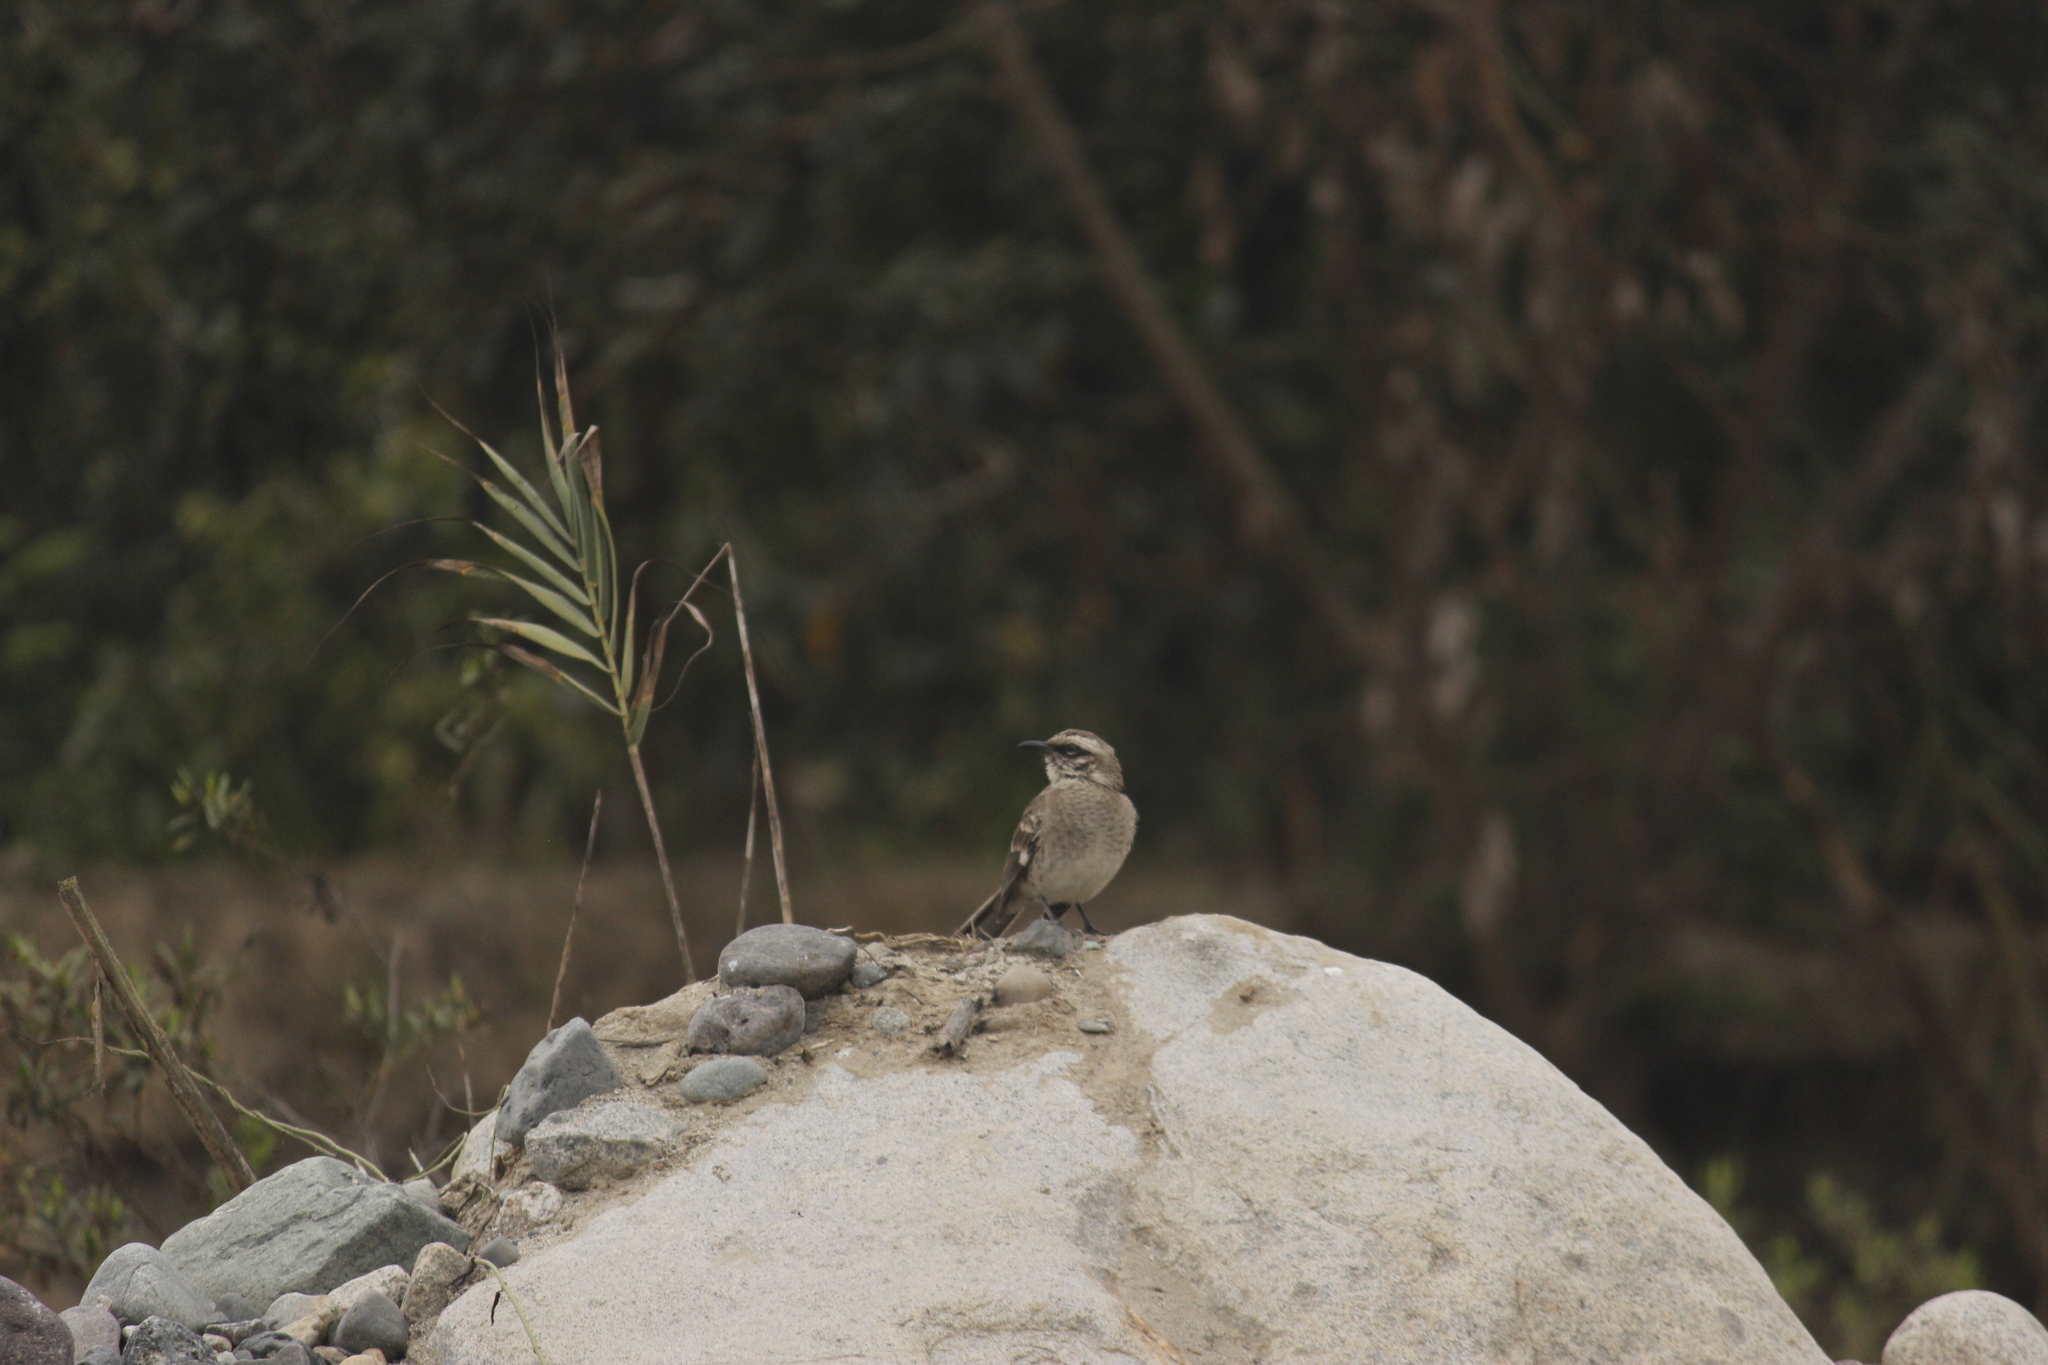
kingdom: Animalia
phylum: Chordata
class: Aves
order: Passeriformes
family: Mimidae
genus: Mimus
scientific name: Mimus longicaudatus
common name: Long-tailed mockingbird
